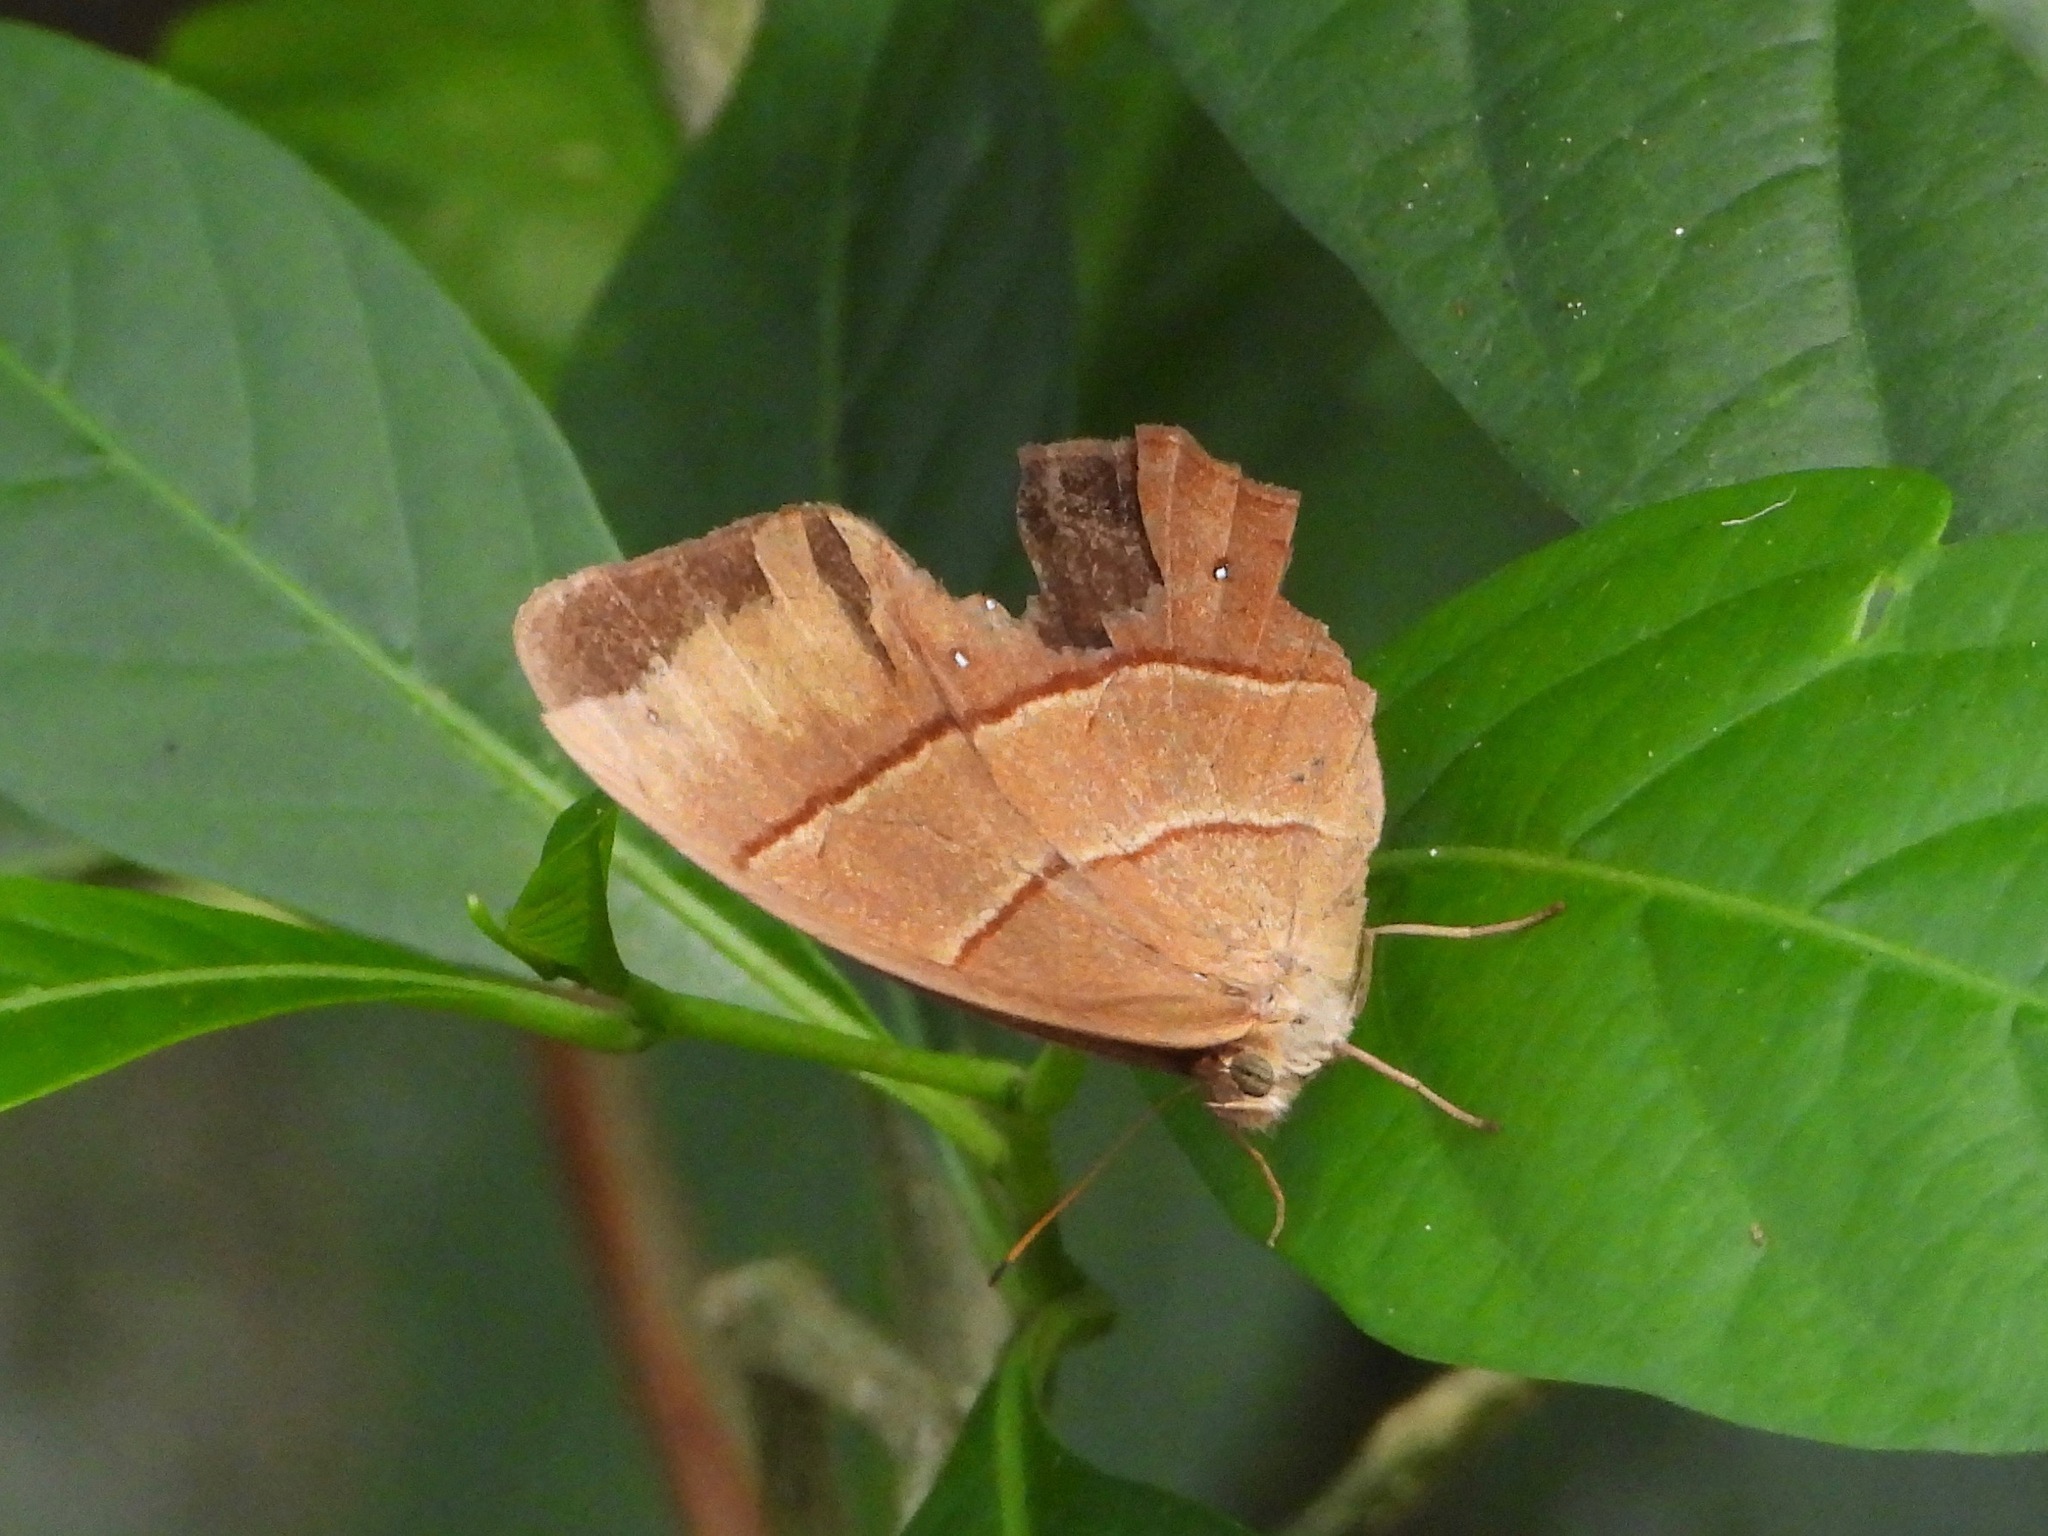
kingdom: Animalia
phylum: Arthropoda
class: Insecta
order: Lepidoptera
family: Nymphalidae
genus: Satyrotaygetis
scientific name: Satyrotaygetis satyrina
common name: Wide-bordered satyr
